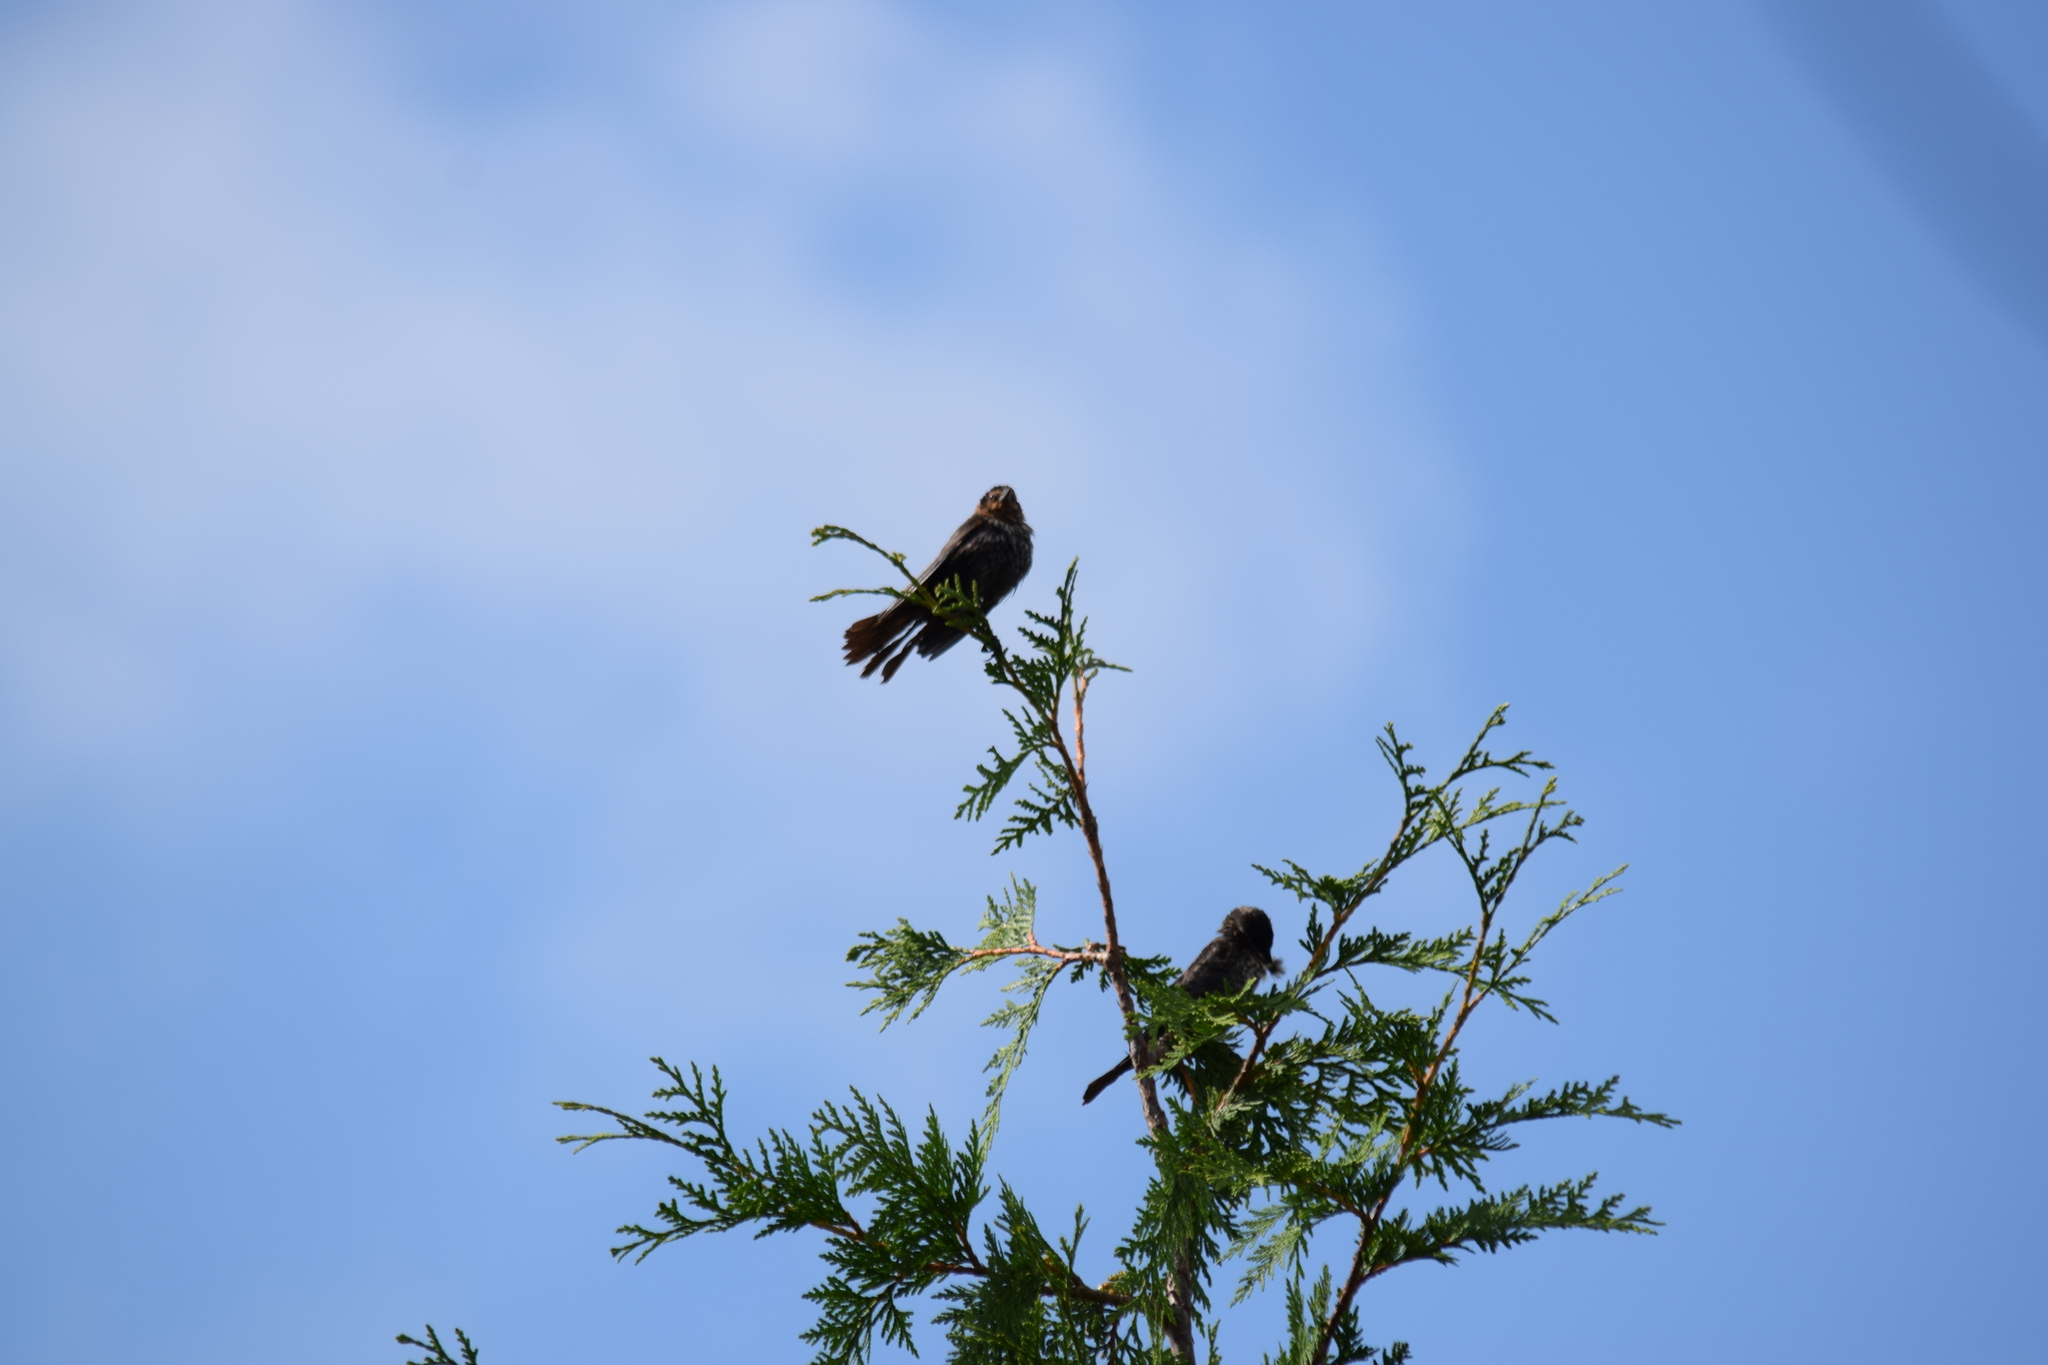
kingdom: Animalia
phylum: Chordata
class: Aves
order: Passeriformes
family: Icteridae
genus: Agelaius
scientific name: Agelaius phoeniceus
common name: Red-winged blackbird
